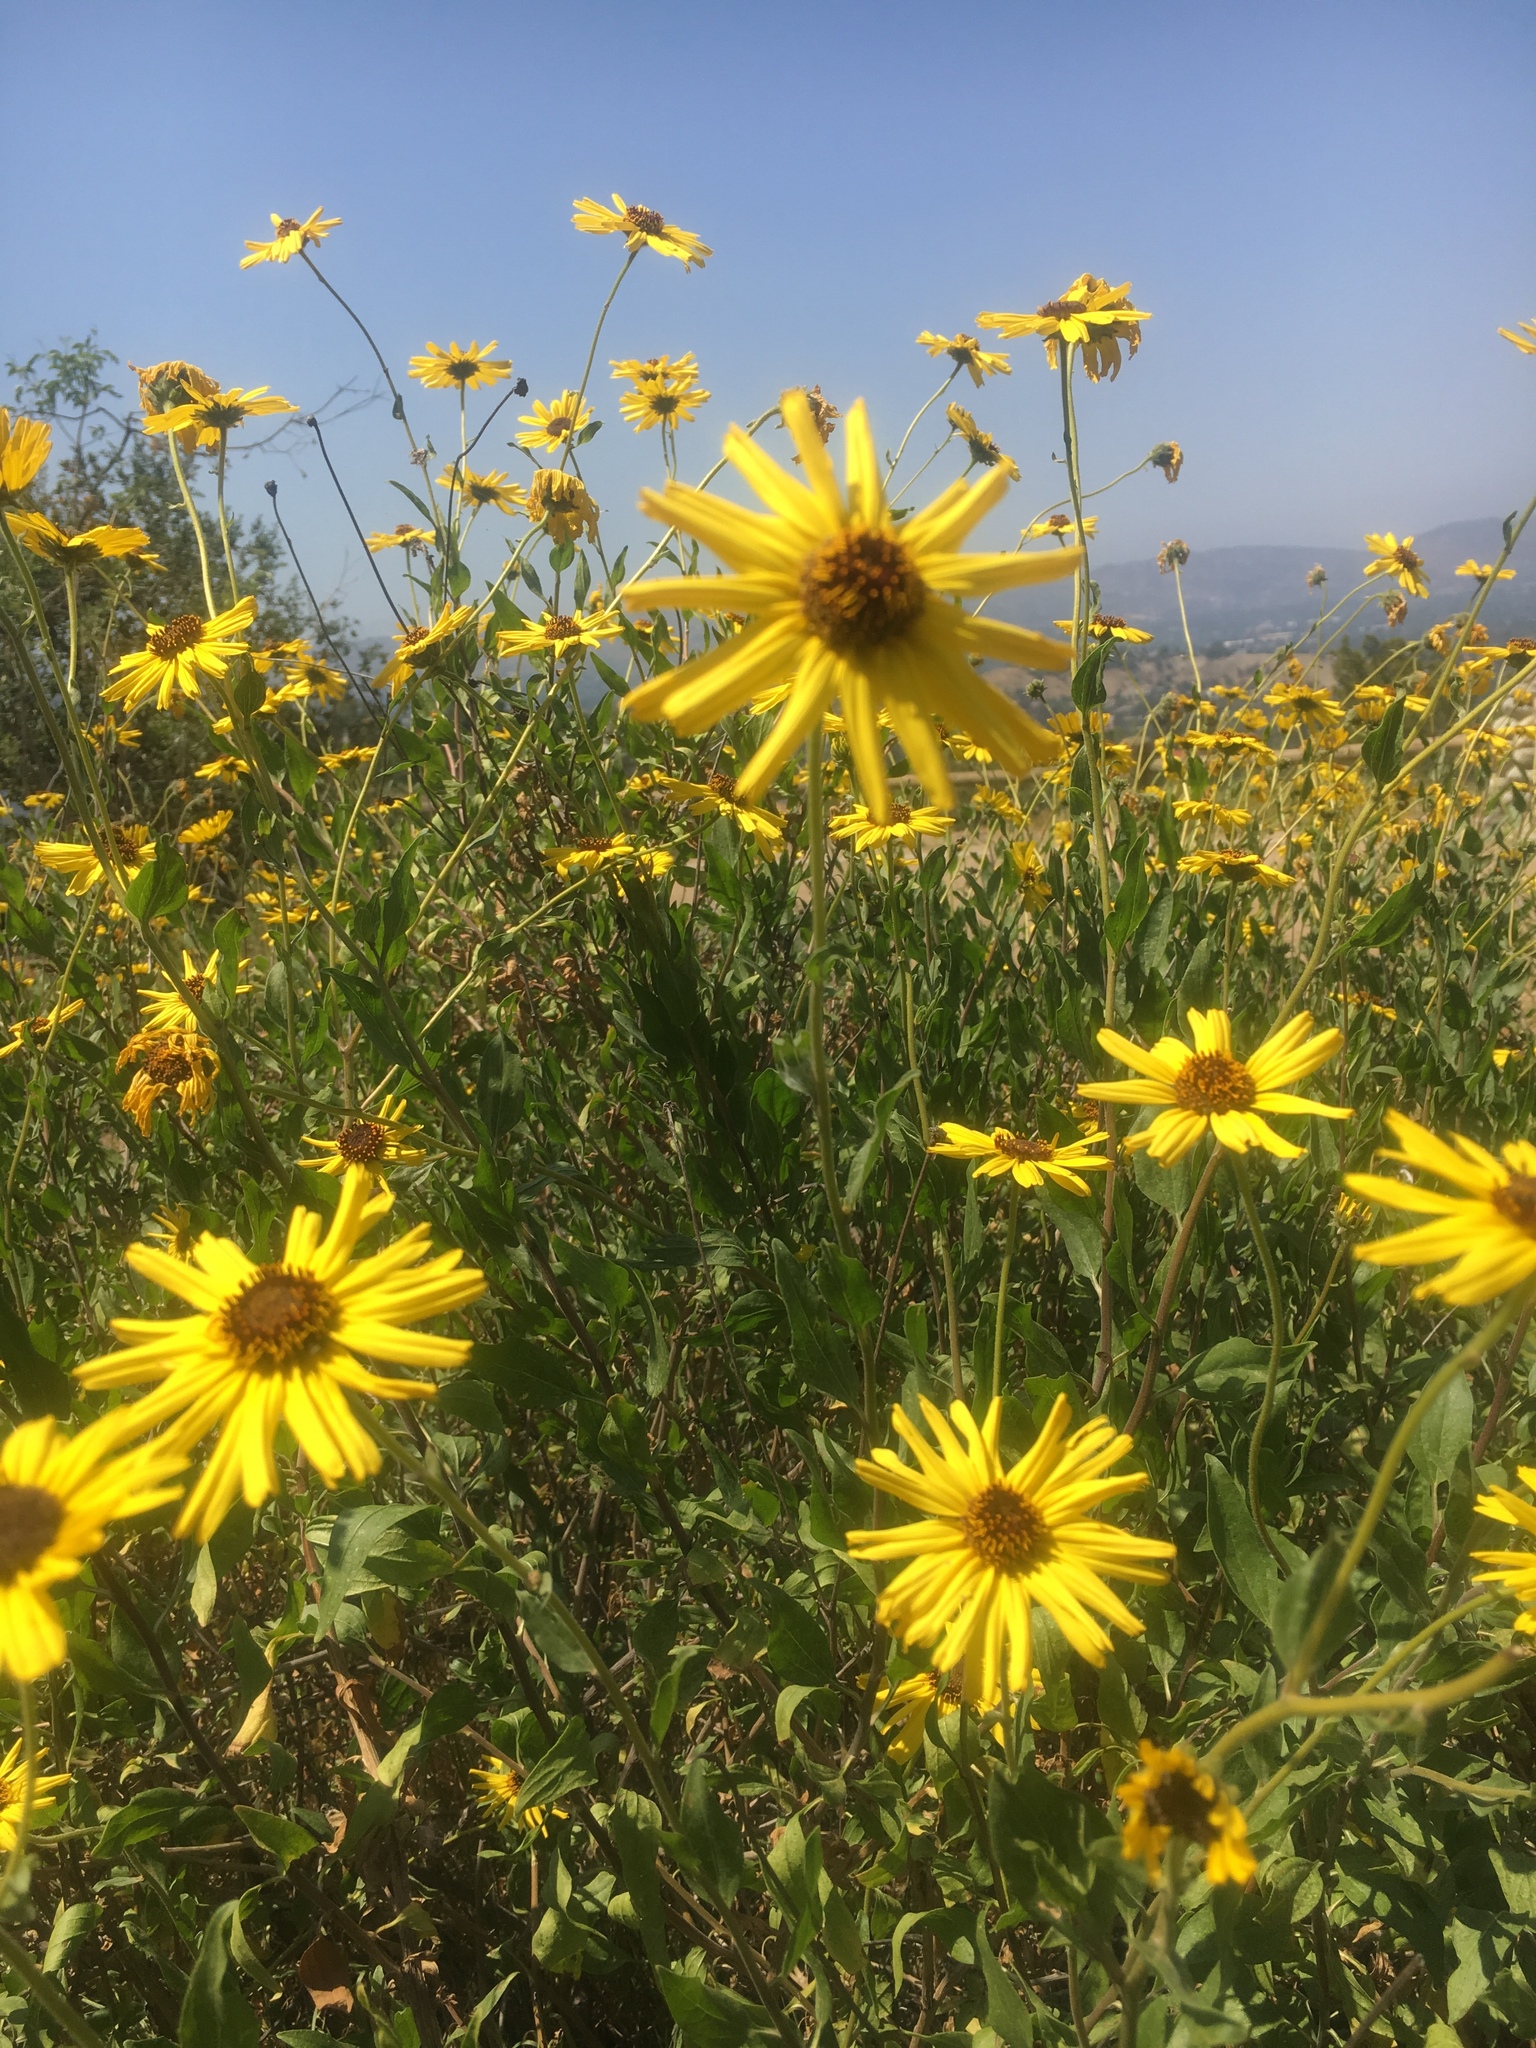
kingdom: Plantae
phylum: Tracheophyta
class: Magnoliopsida
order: Asterales
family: Asteraceae
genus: Encelia
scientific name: Encelia californica
